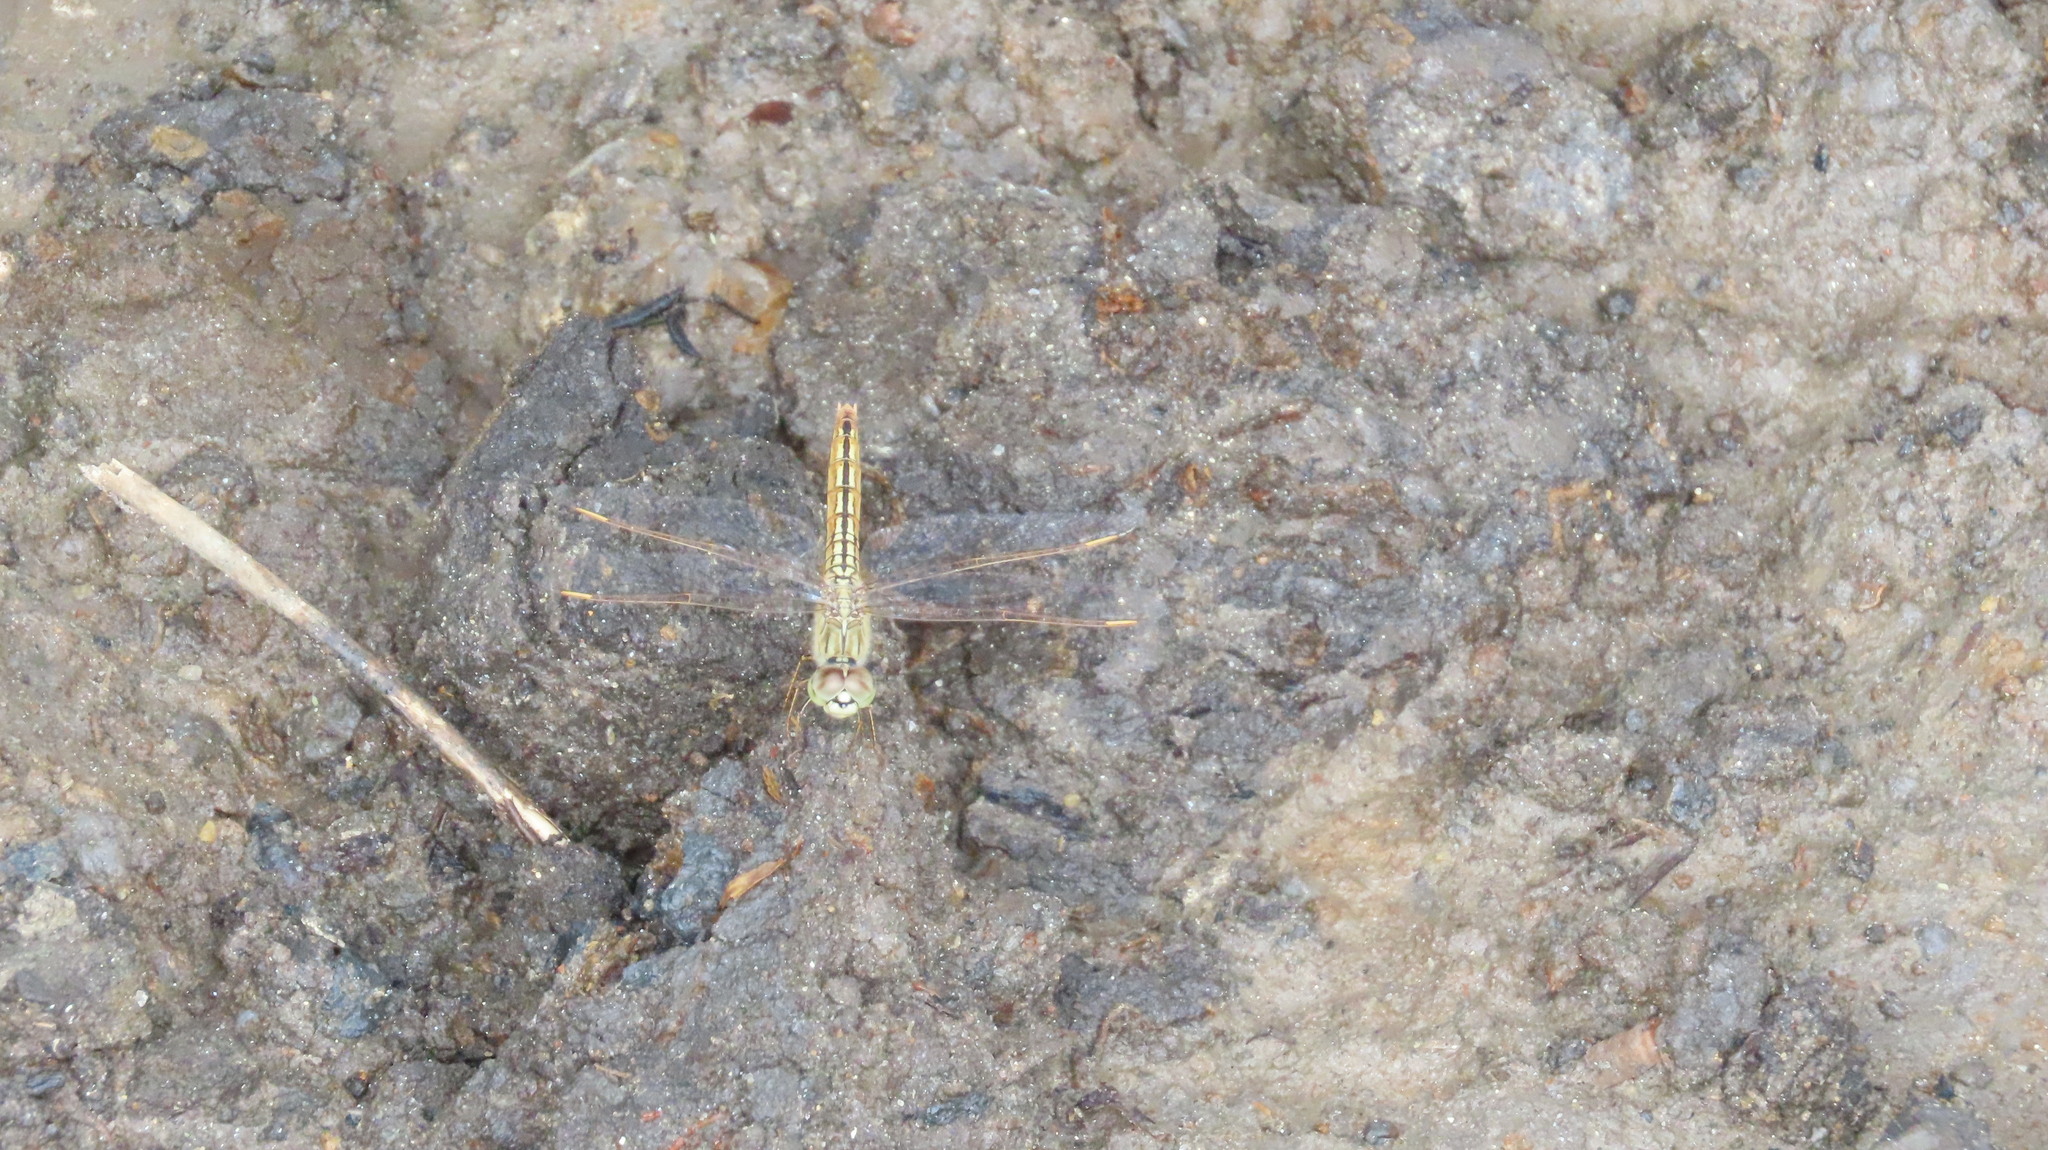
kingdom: Animalia
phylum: Arthropoda
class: Insecta
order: Odonata
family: Libellulidae
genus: Brachythemis
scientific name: Brachythemis contaminata
